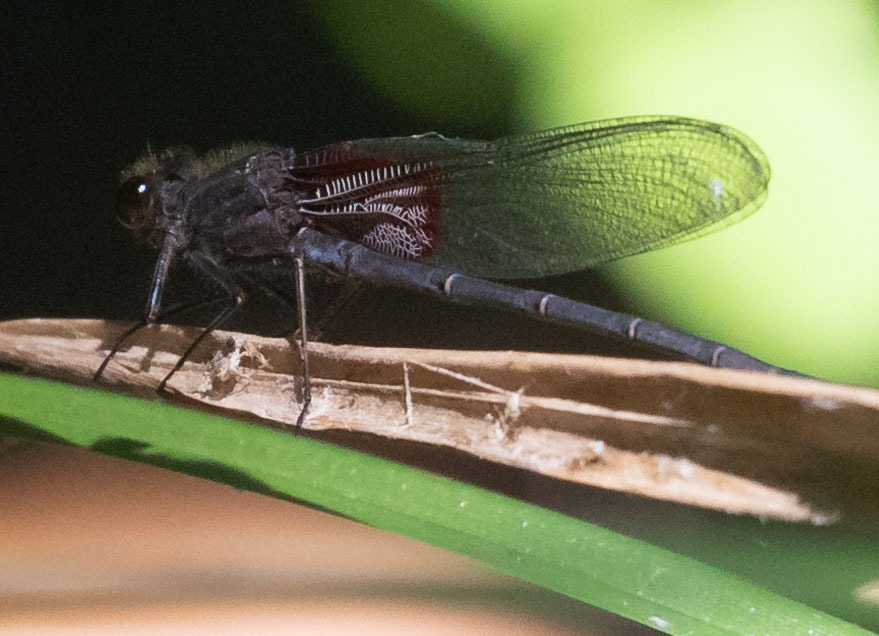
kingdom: Animalia
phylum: Arthropoda
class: Insecta
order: Odonata
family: Calopterygidae
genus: Hetaerina
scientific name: Hetaerina americana
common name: American rubyspot
